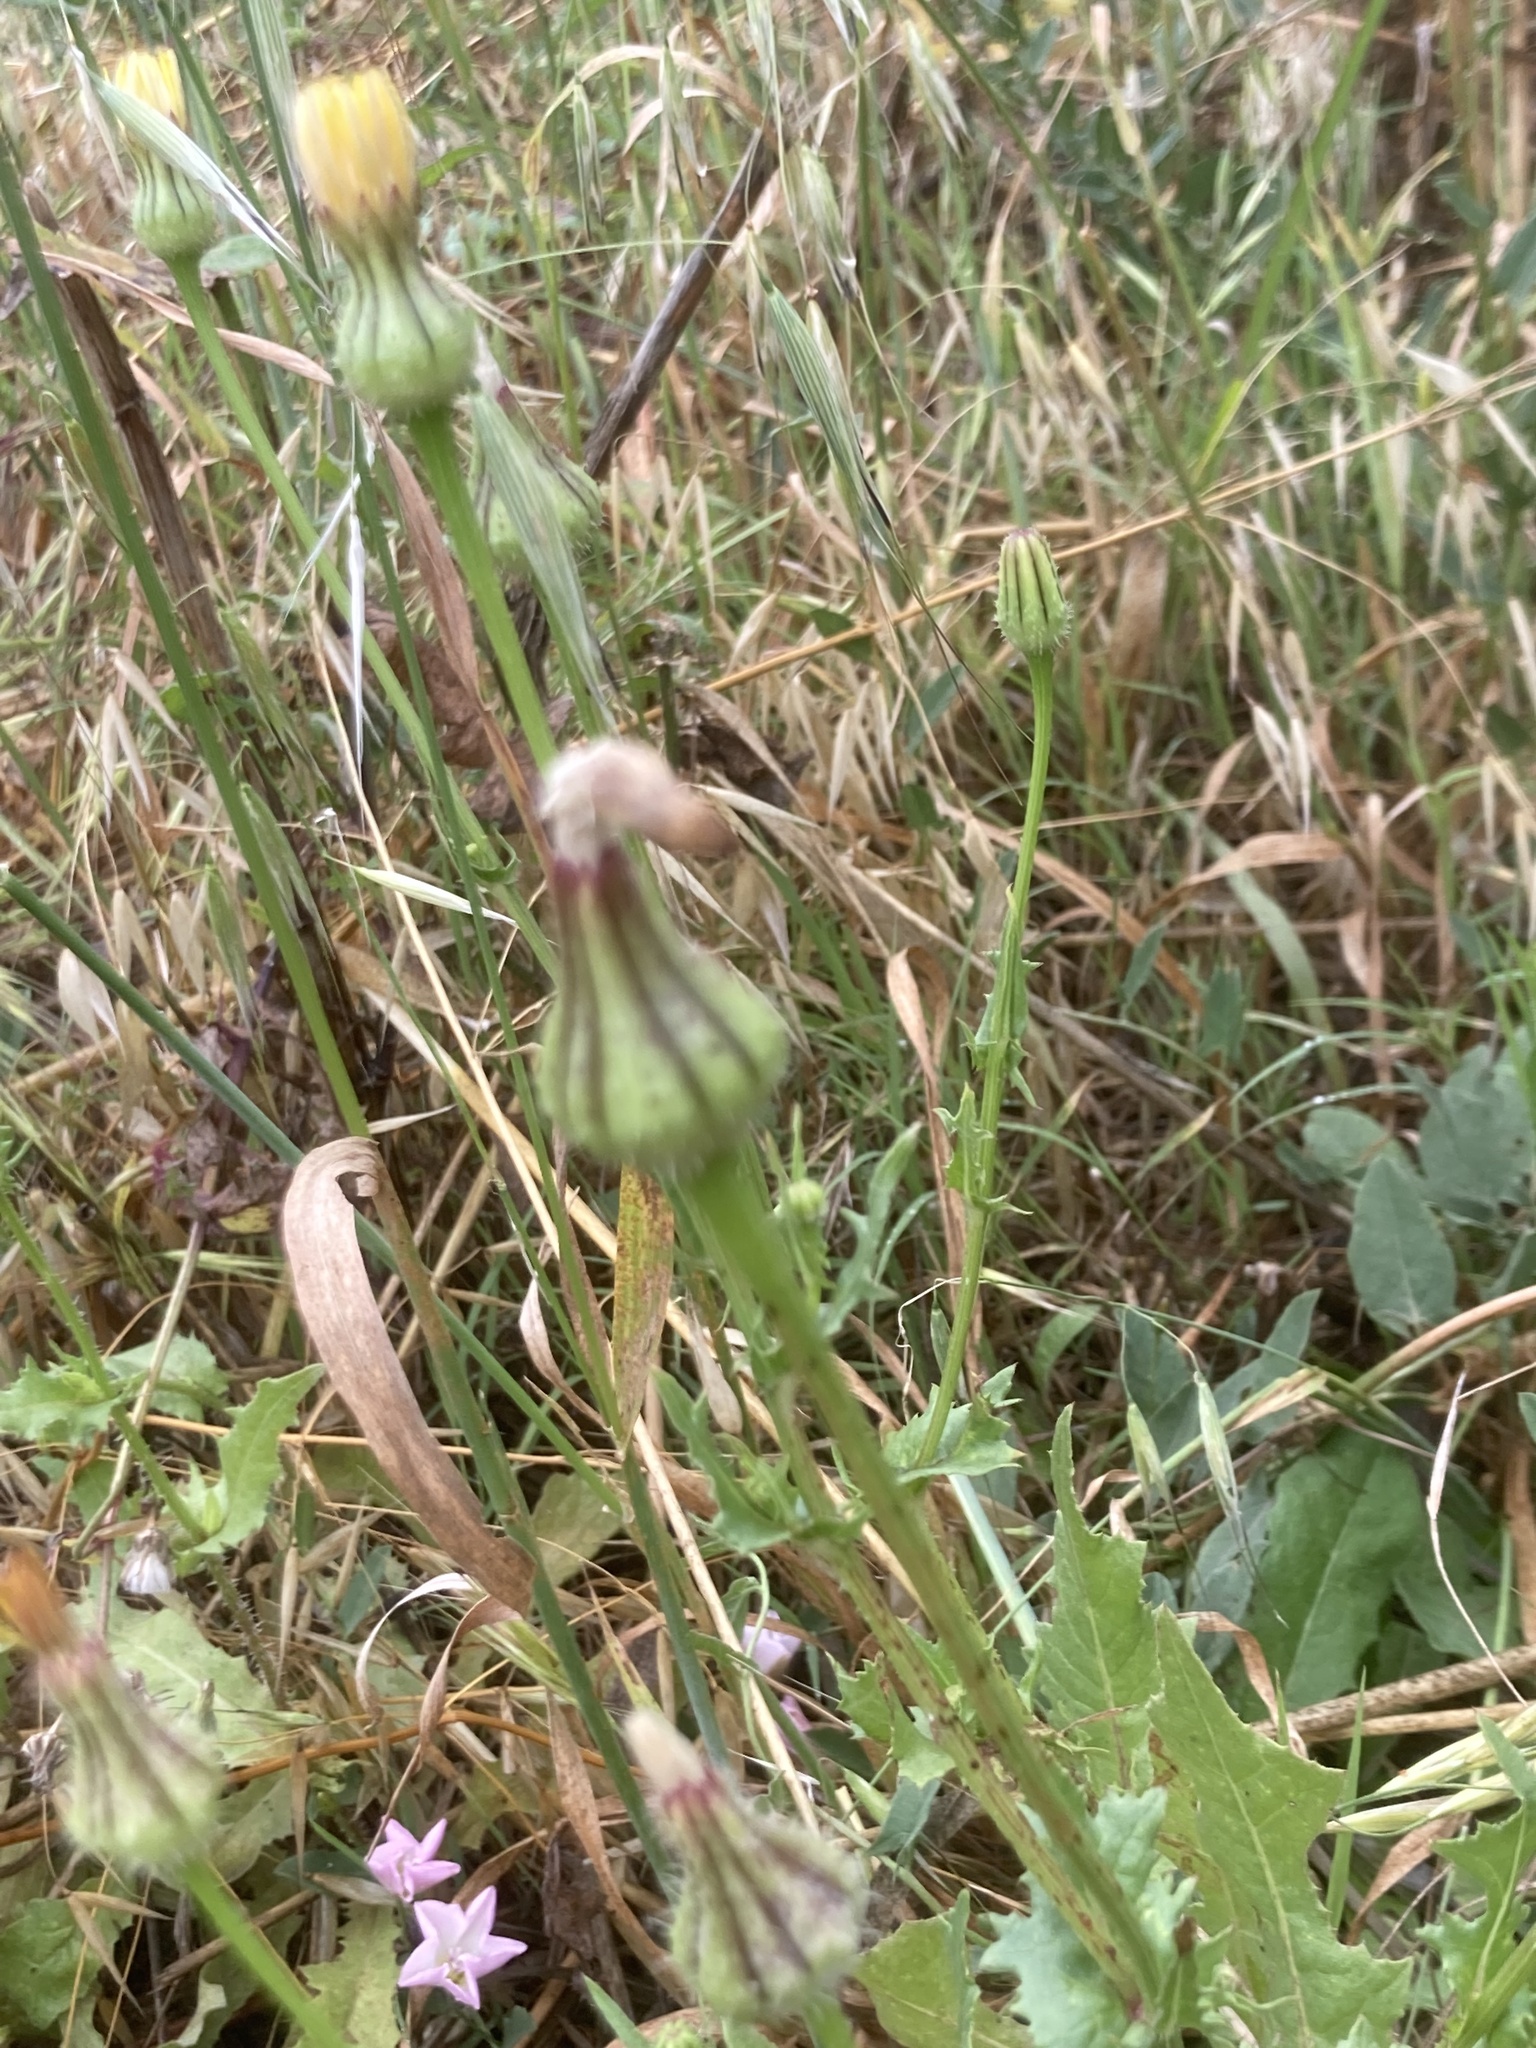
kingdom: Plantae
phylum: Tracheophyta
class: Magnoliopsida
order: Asterales
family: Asteraceae
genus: Urospermum
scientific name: Urospermum picroides
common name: False hawkbit
